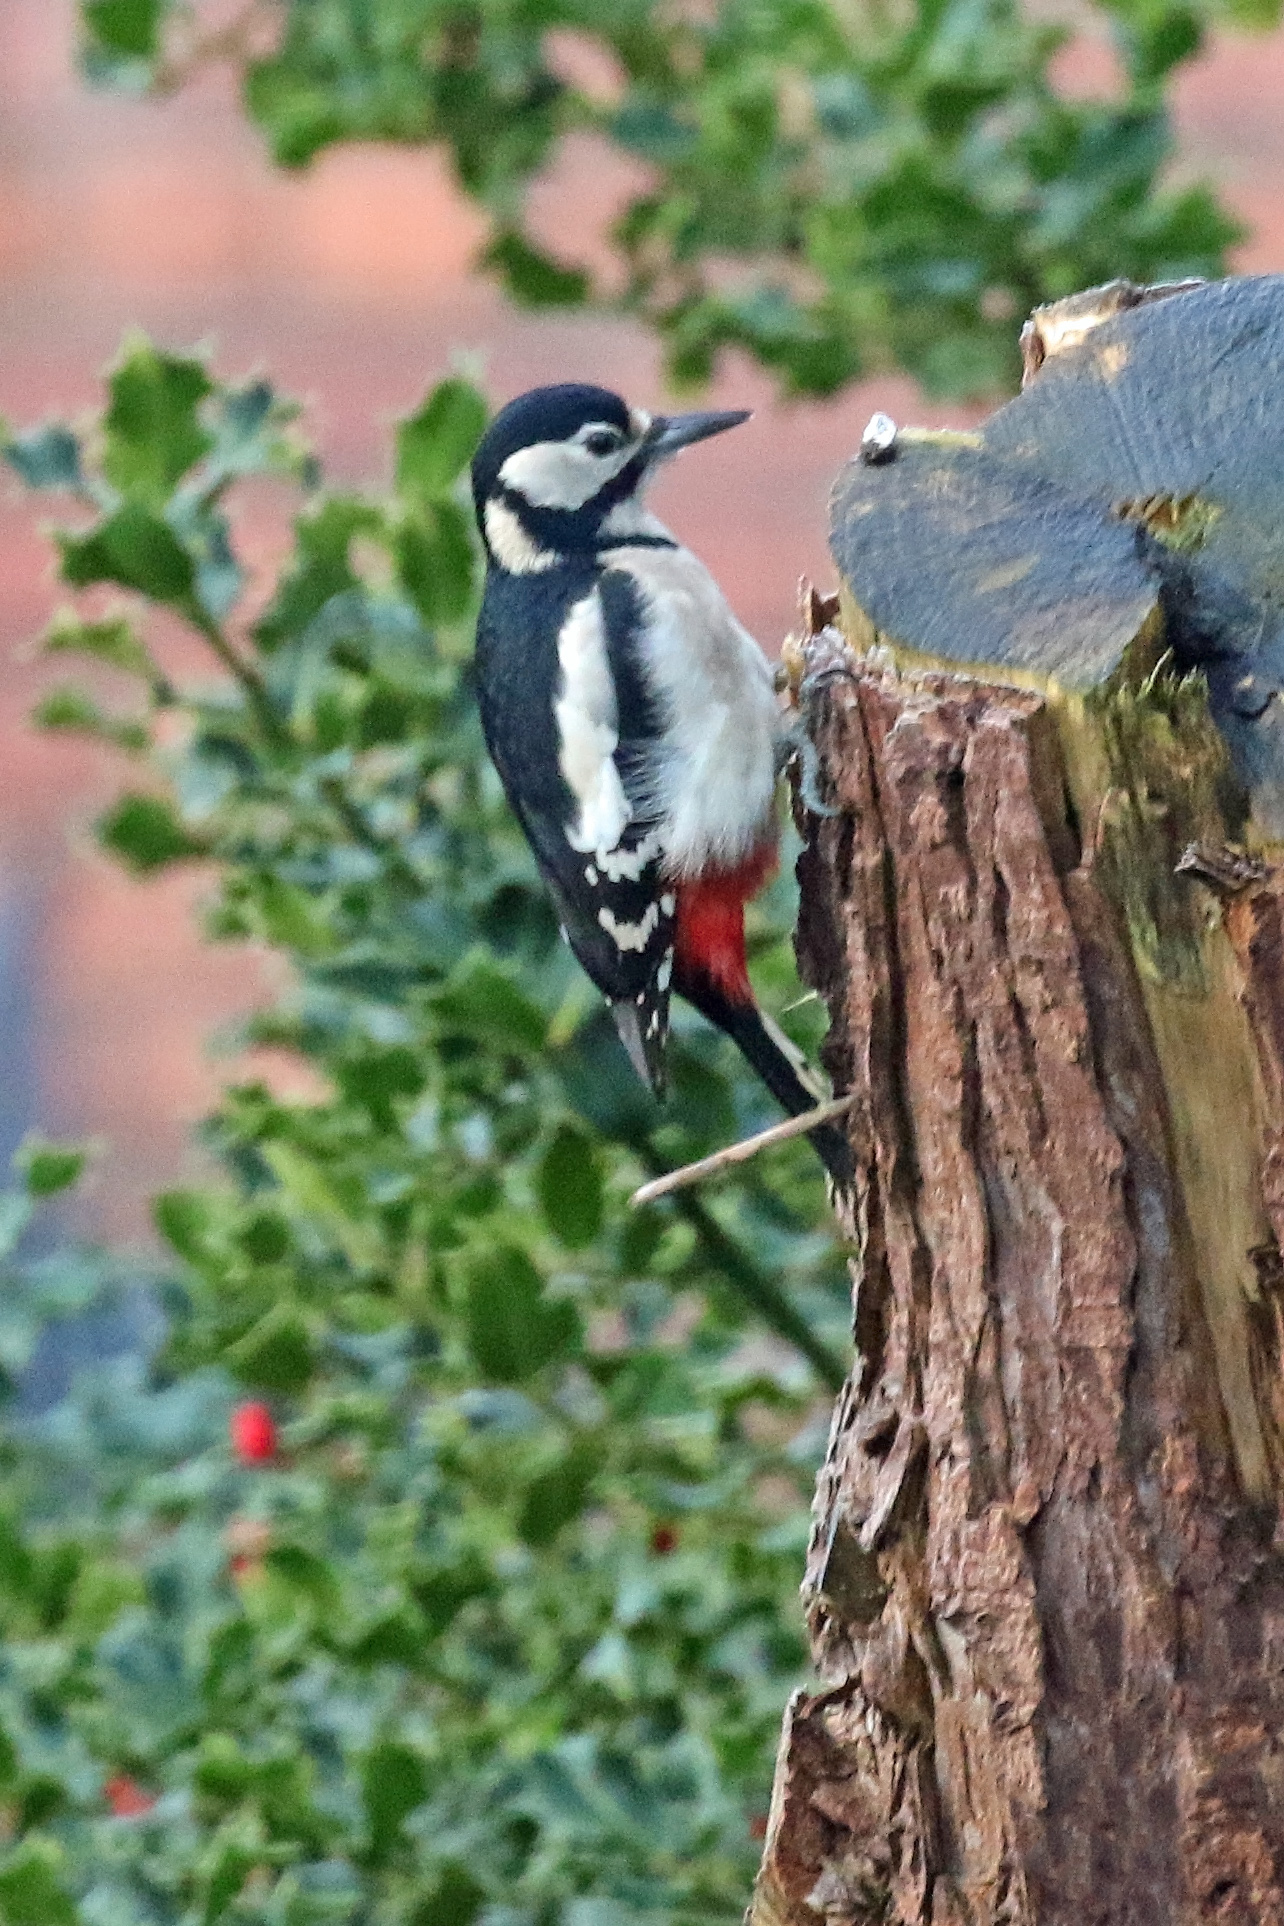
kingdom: Animalia
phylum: Chordata
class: Aves
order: Piciformes
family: Picidae
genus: Dendrocopos
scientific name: Dendrocopos major
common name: Great spotted woodpecker
